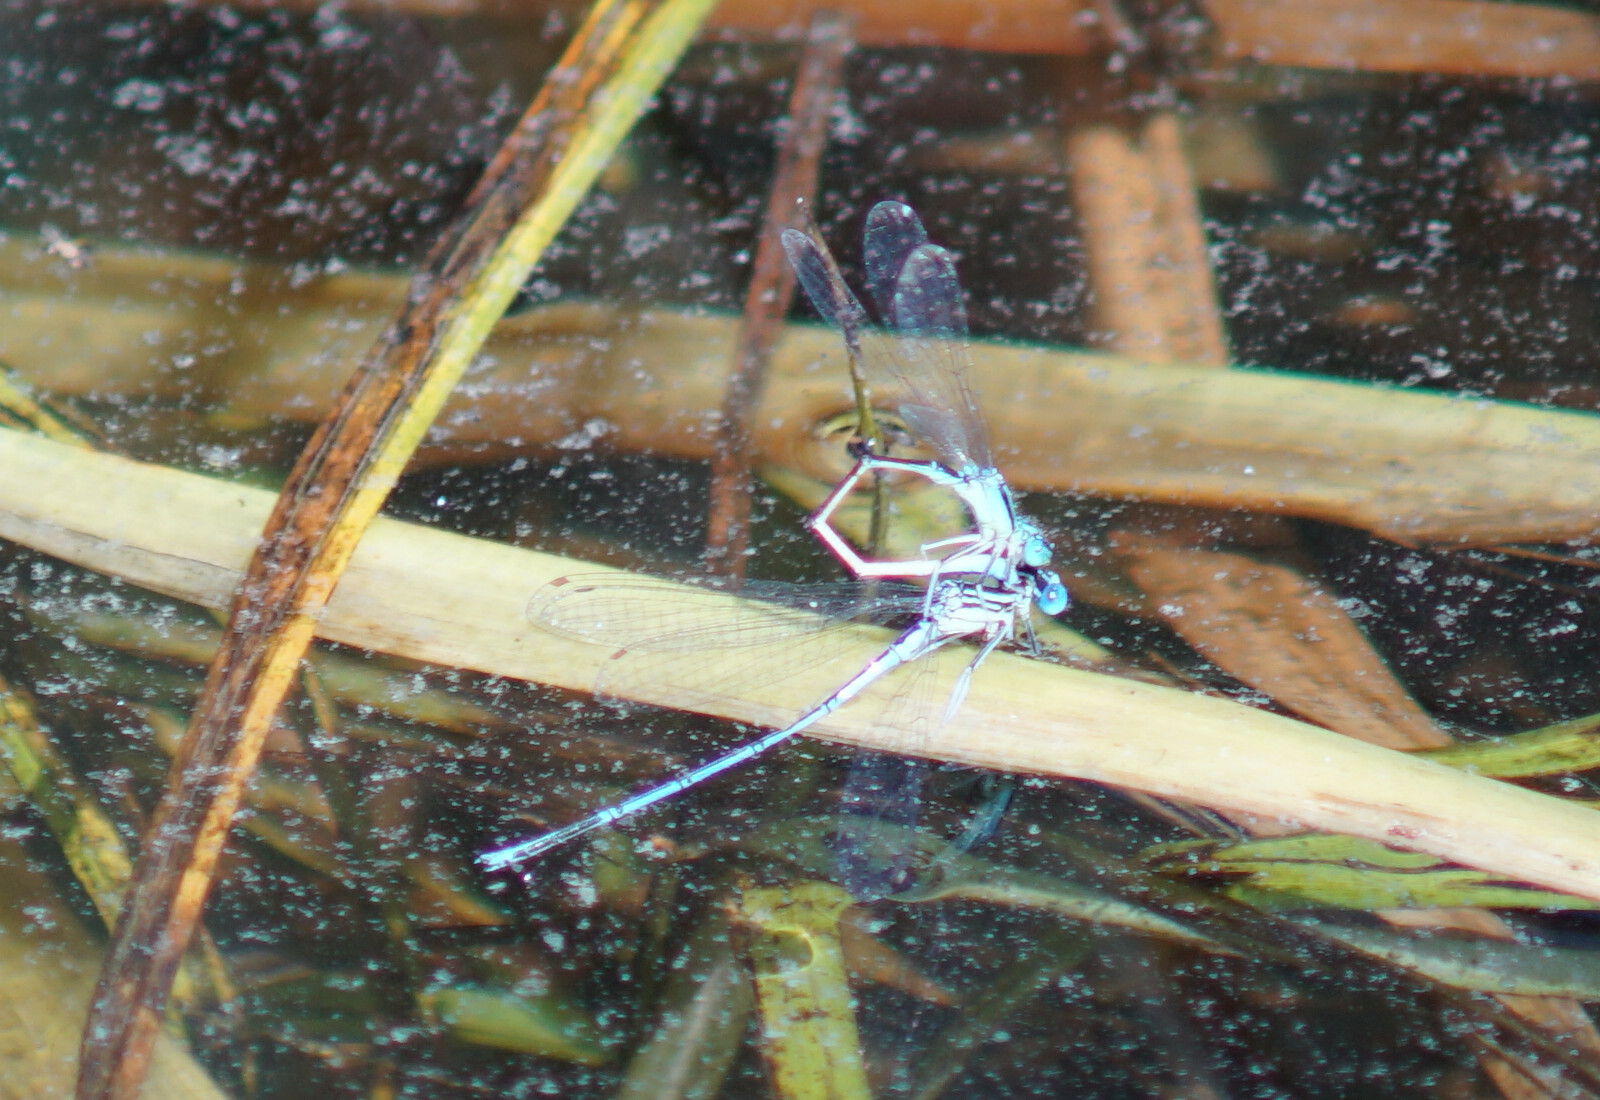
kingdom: Animalia
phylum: Arthropoda
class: Insecta
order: Odonata
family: Platycnemididae
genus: Platycnemis
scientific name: Platycnemis pennipes
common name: White-legged damselfly
